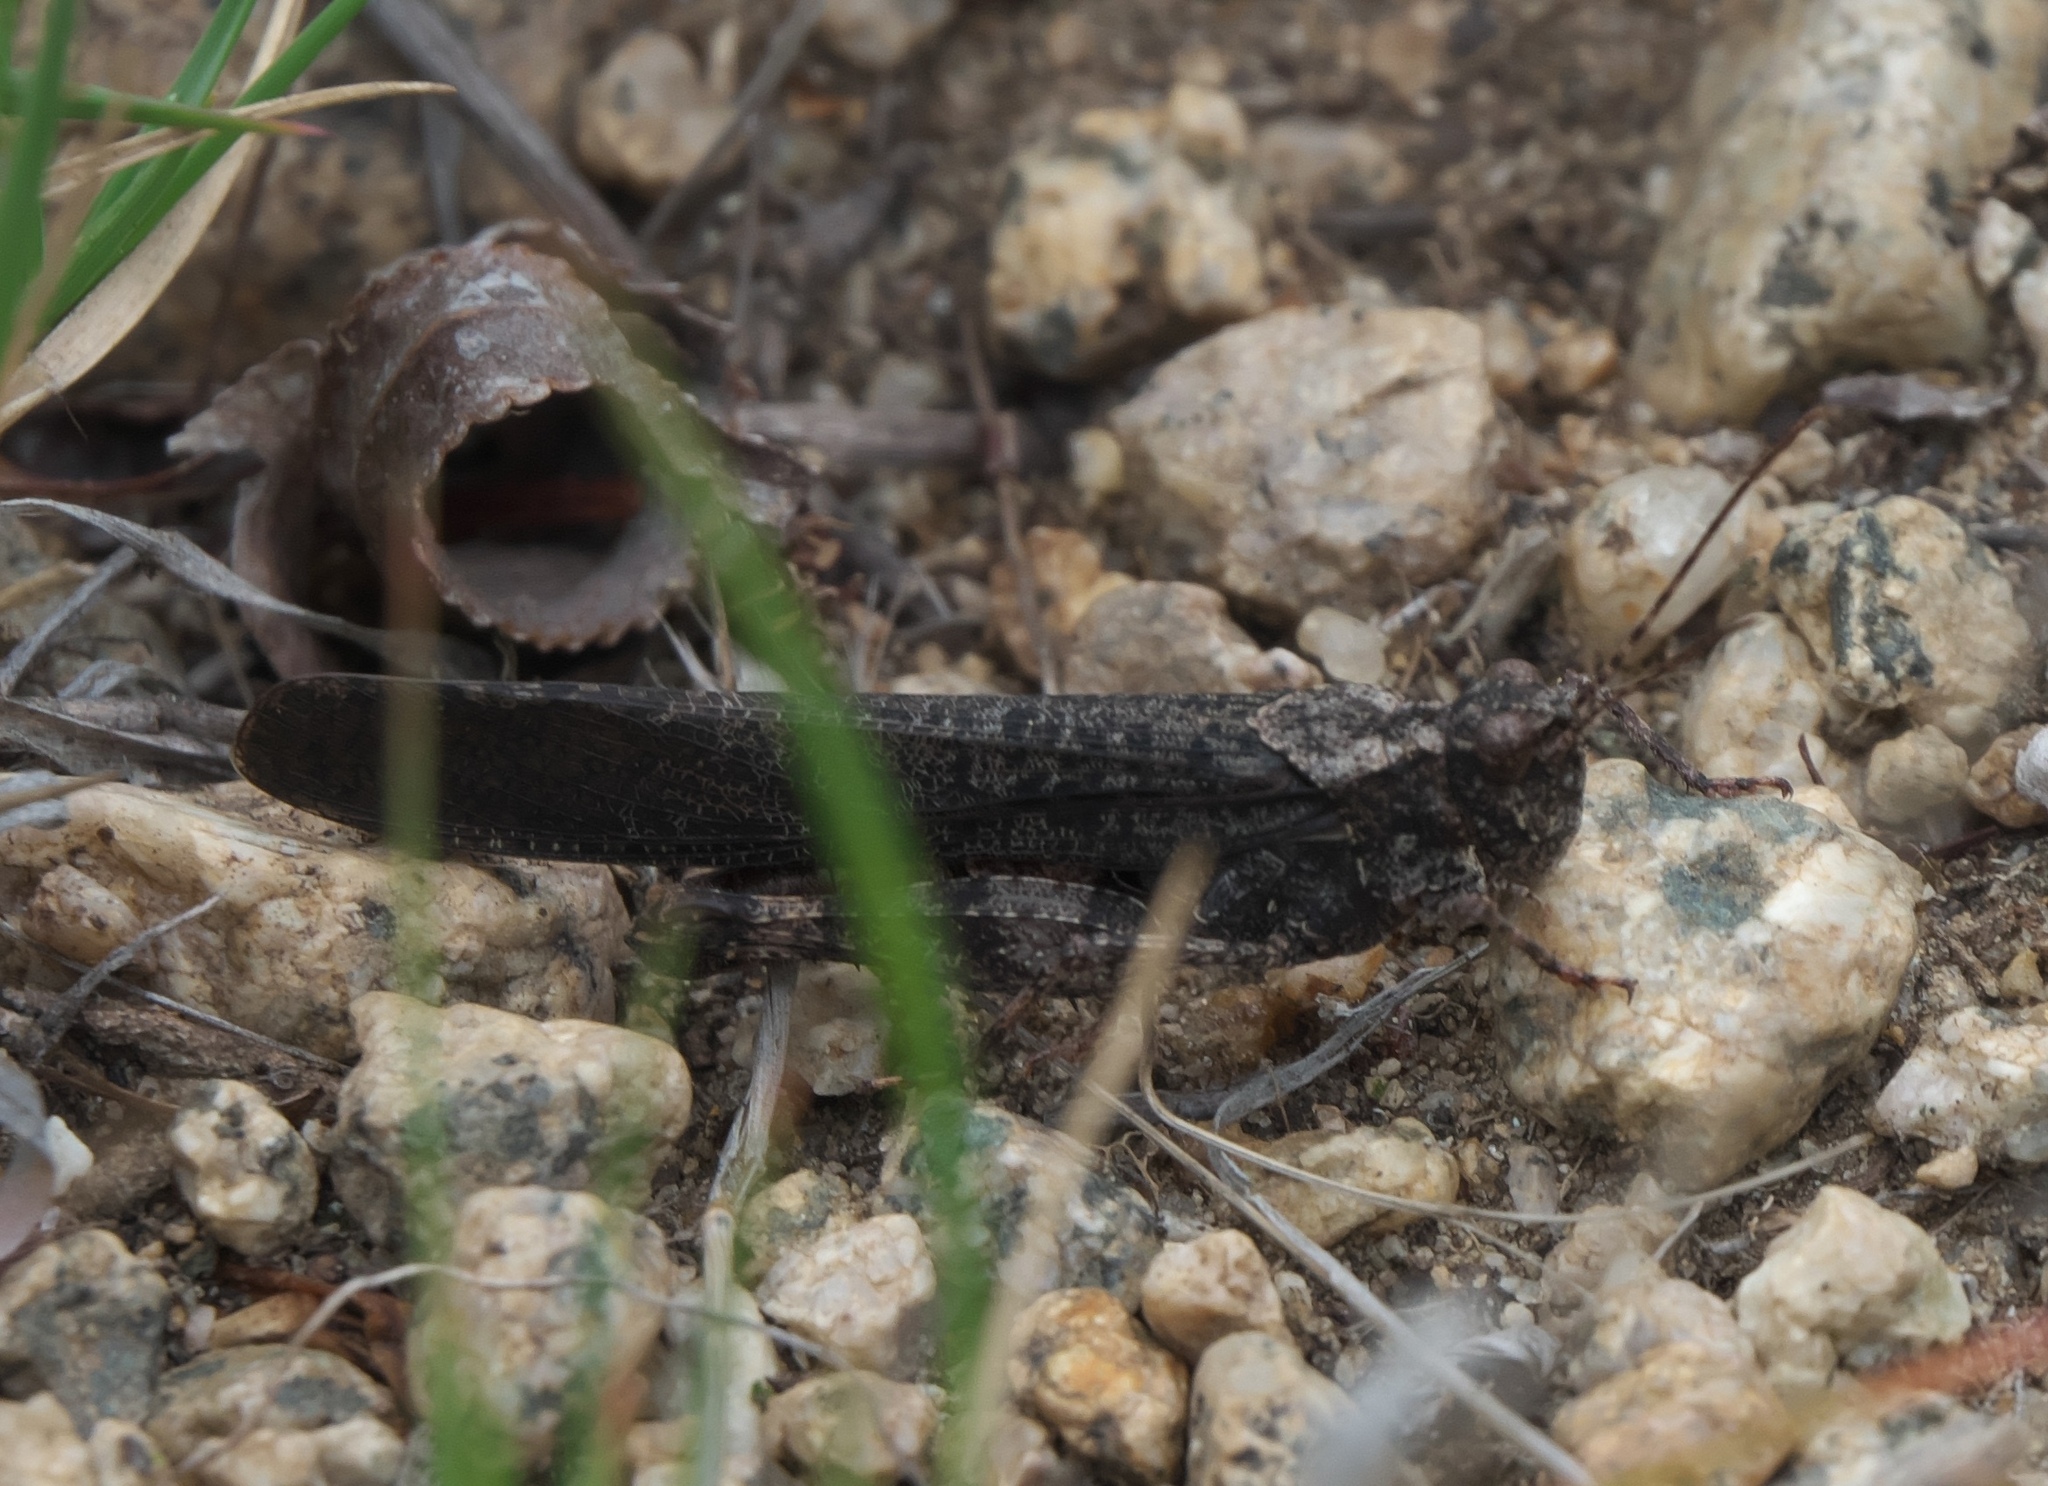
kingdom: Animalia
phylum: Arthropoda
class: Insecta
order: Orthoptera
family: Acrididae
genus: Trimerotropis
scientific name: Trimerotropis verruculata
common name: Crackling forest grasshopper
